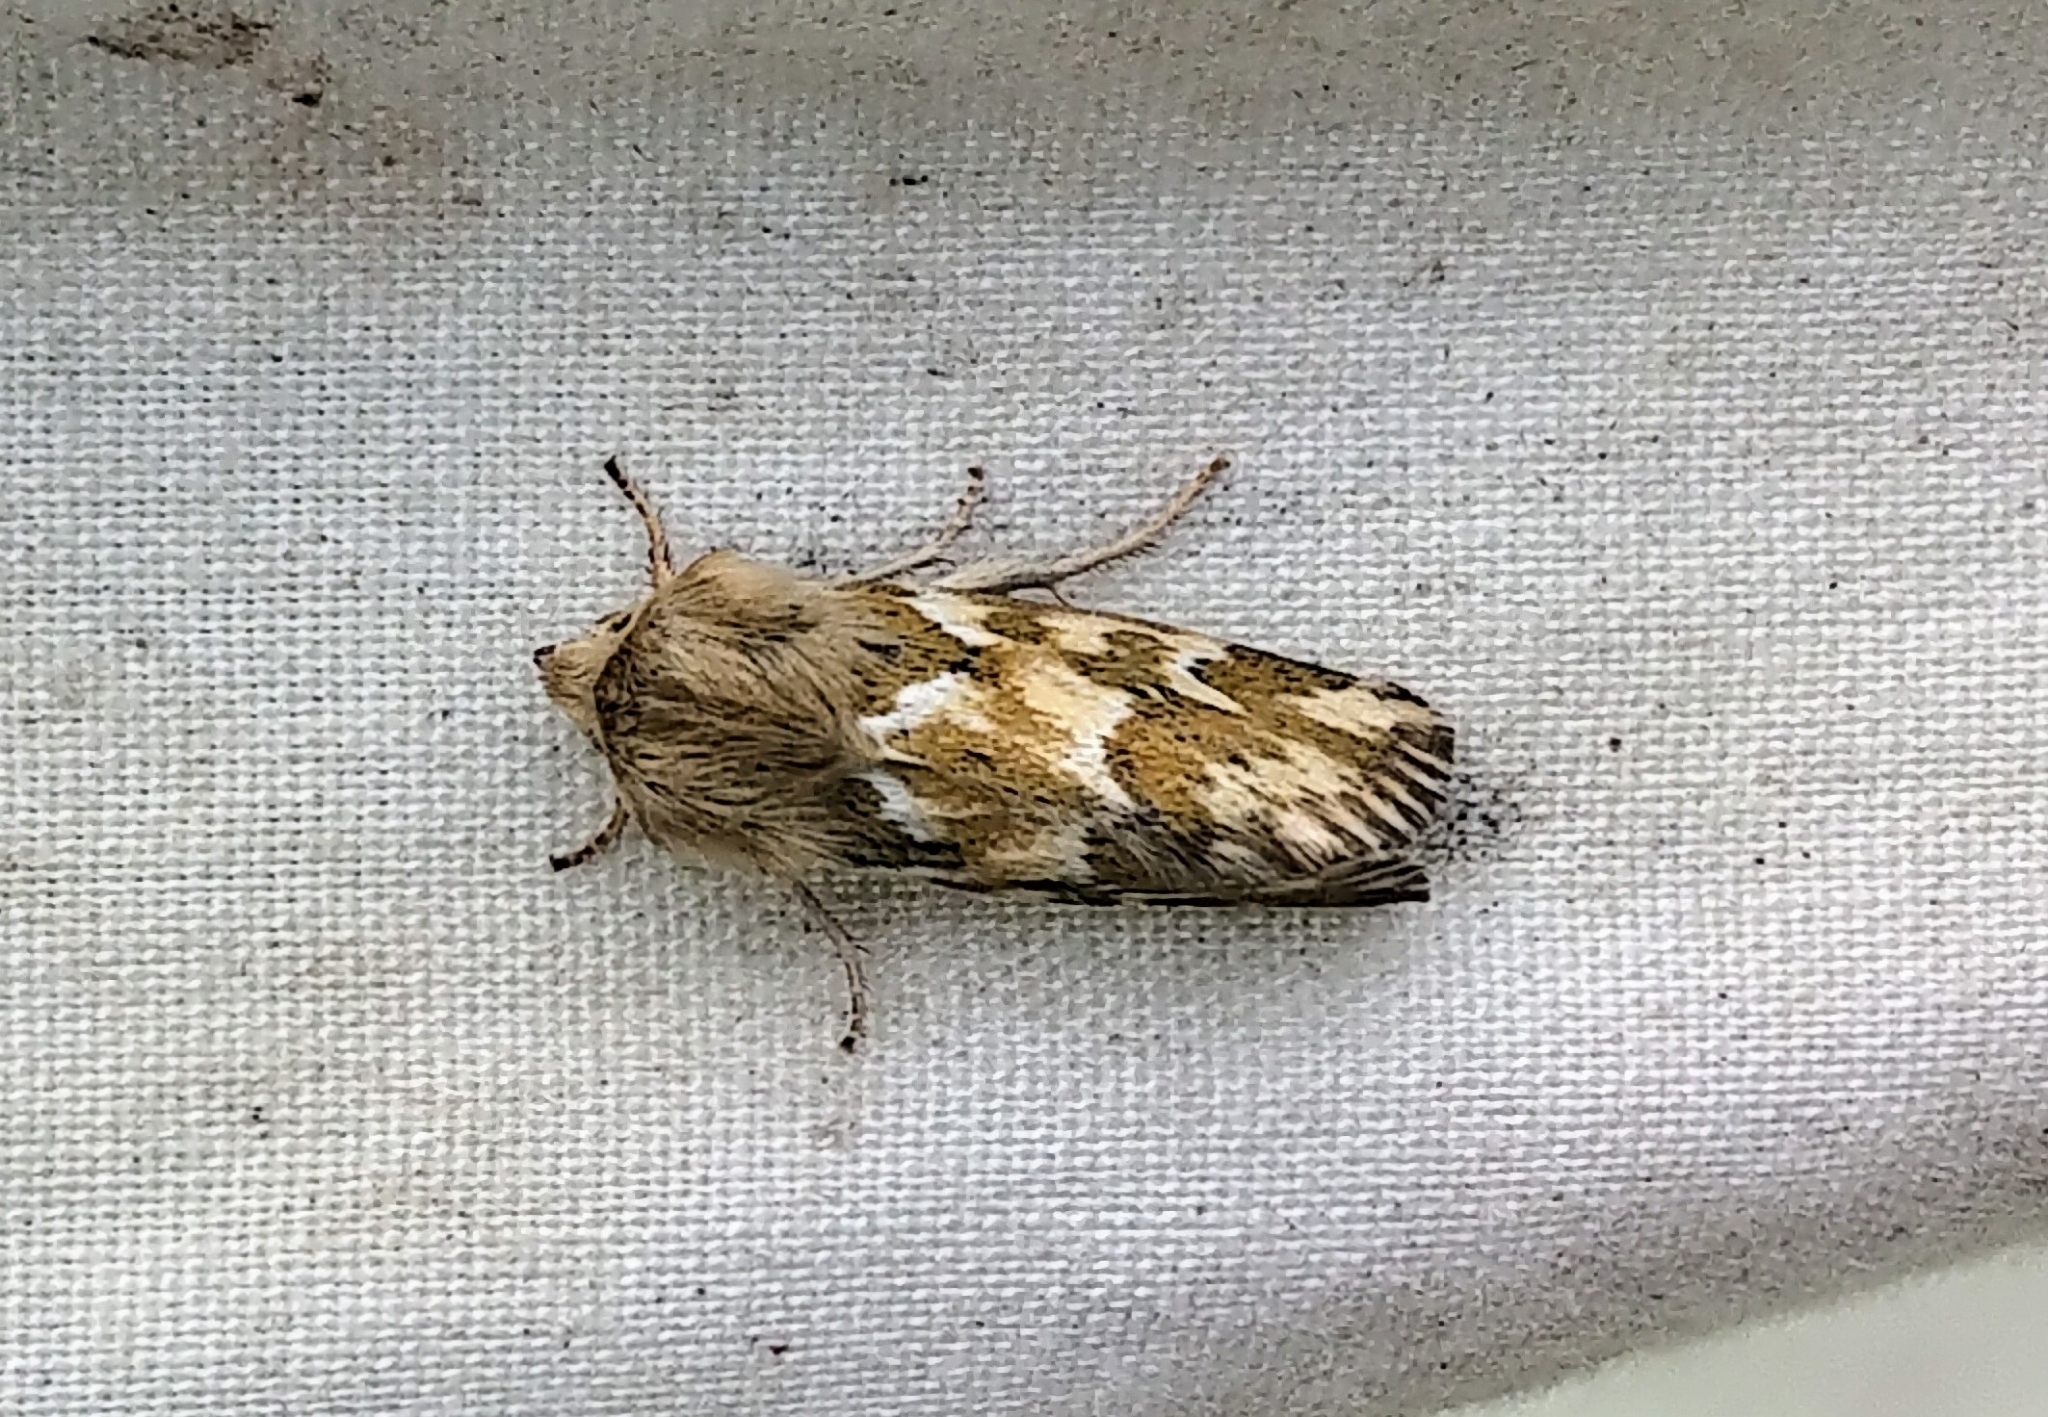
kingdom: Animalia
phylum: Arthropoda
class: Insecta
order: Lepidoptera
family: Noctuidae
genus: Schinia
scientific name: Schinia meadi
